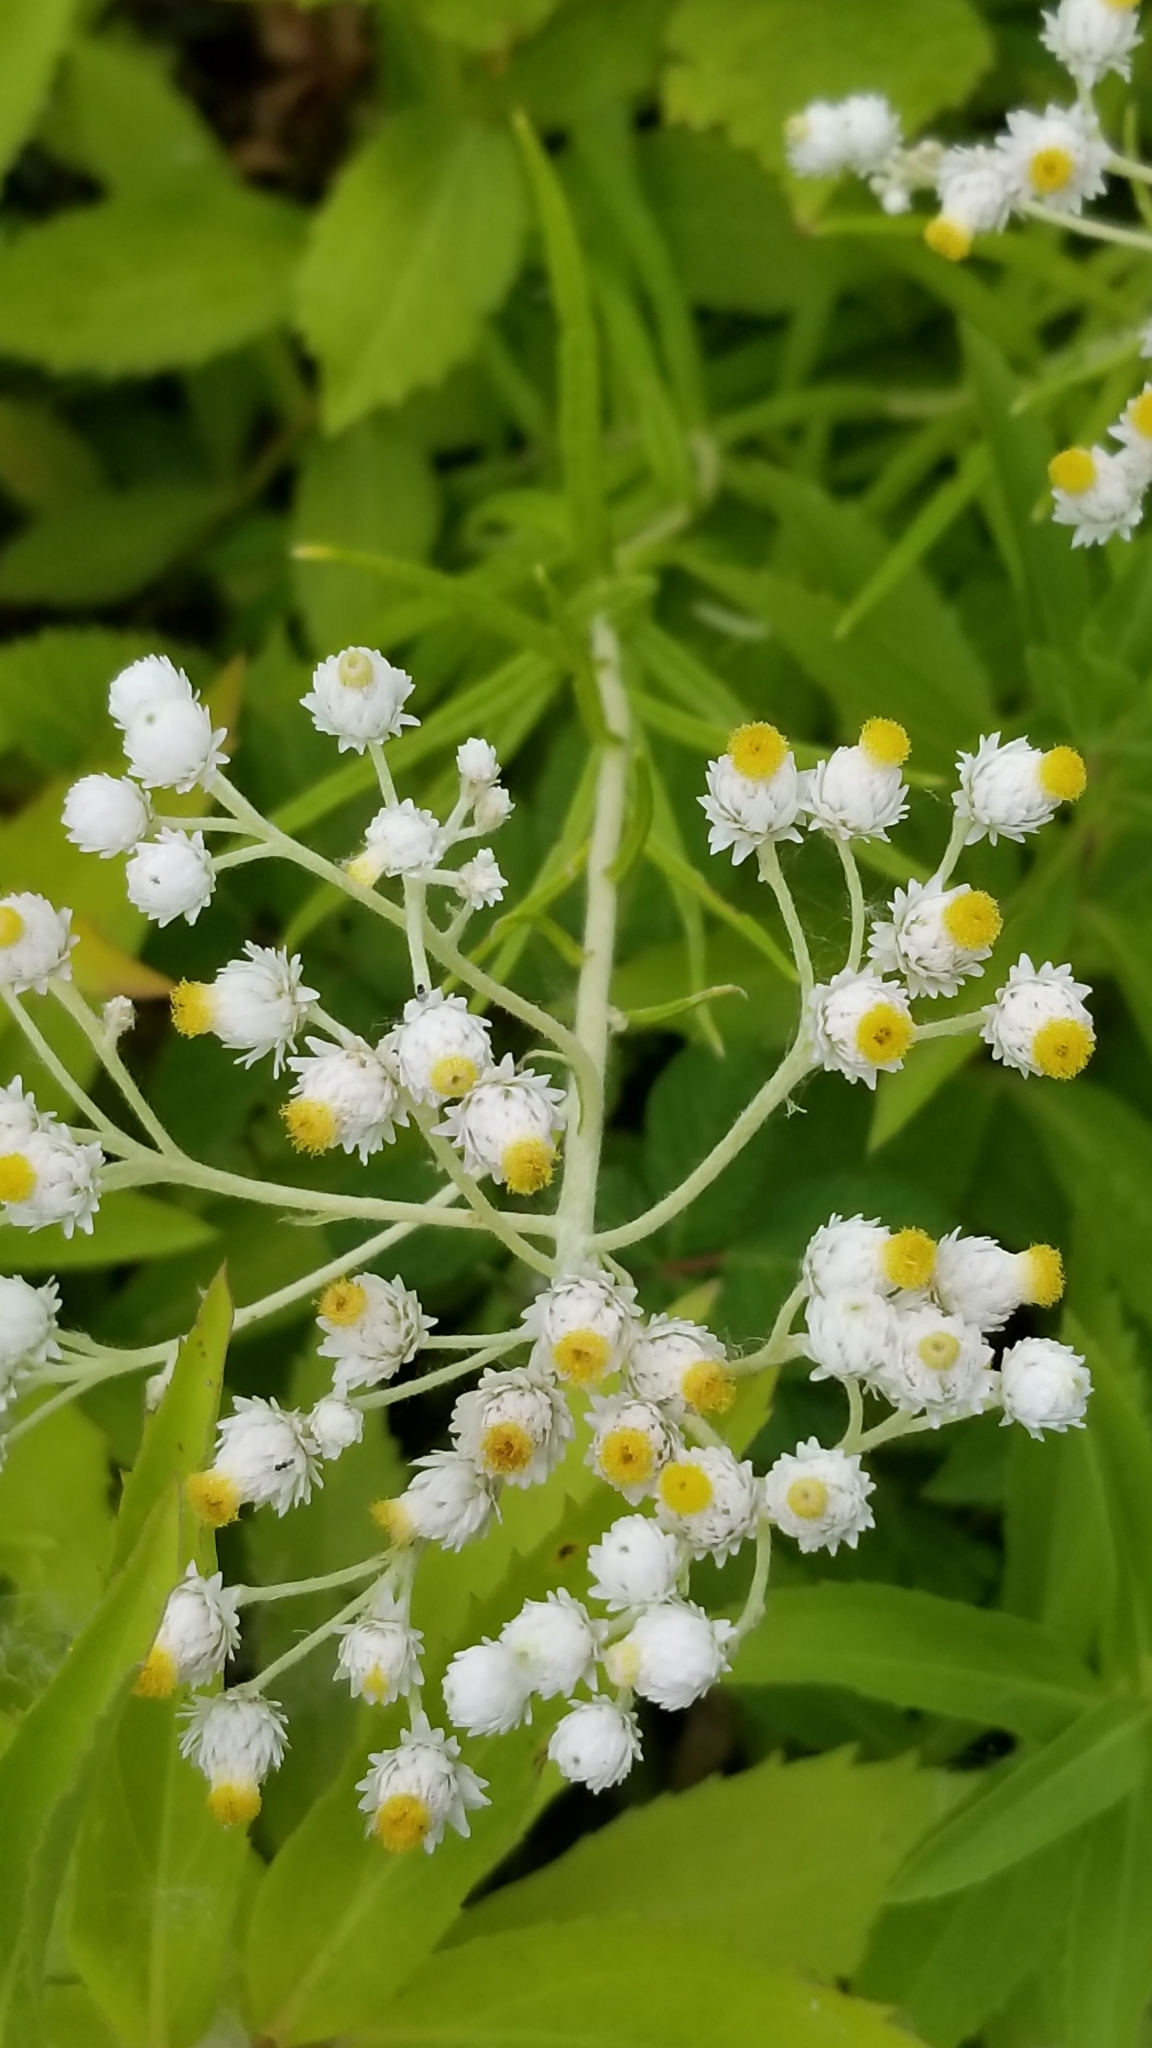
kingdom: Plantae
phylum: Tracheophyta
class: Magnoliopsida
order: Asterales
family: Asteraceae
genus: Anaphalis
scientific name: Anaphalis margaritacea
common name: Pearly everlasting
